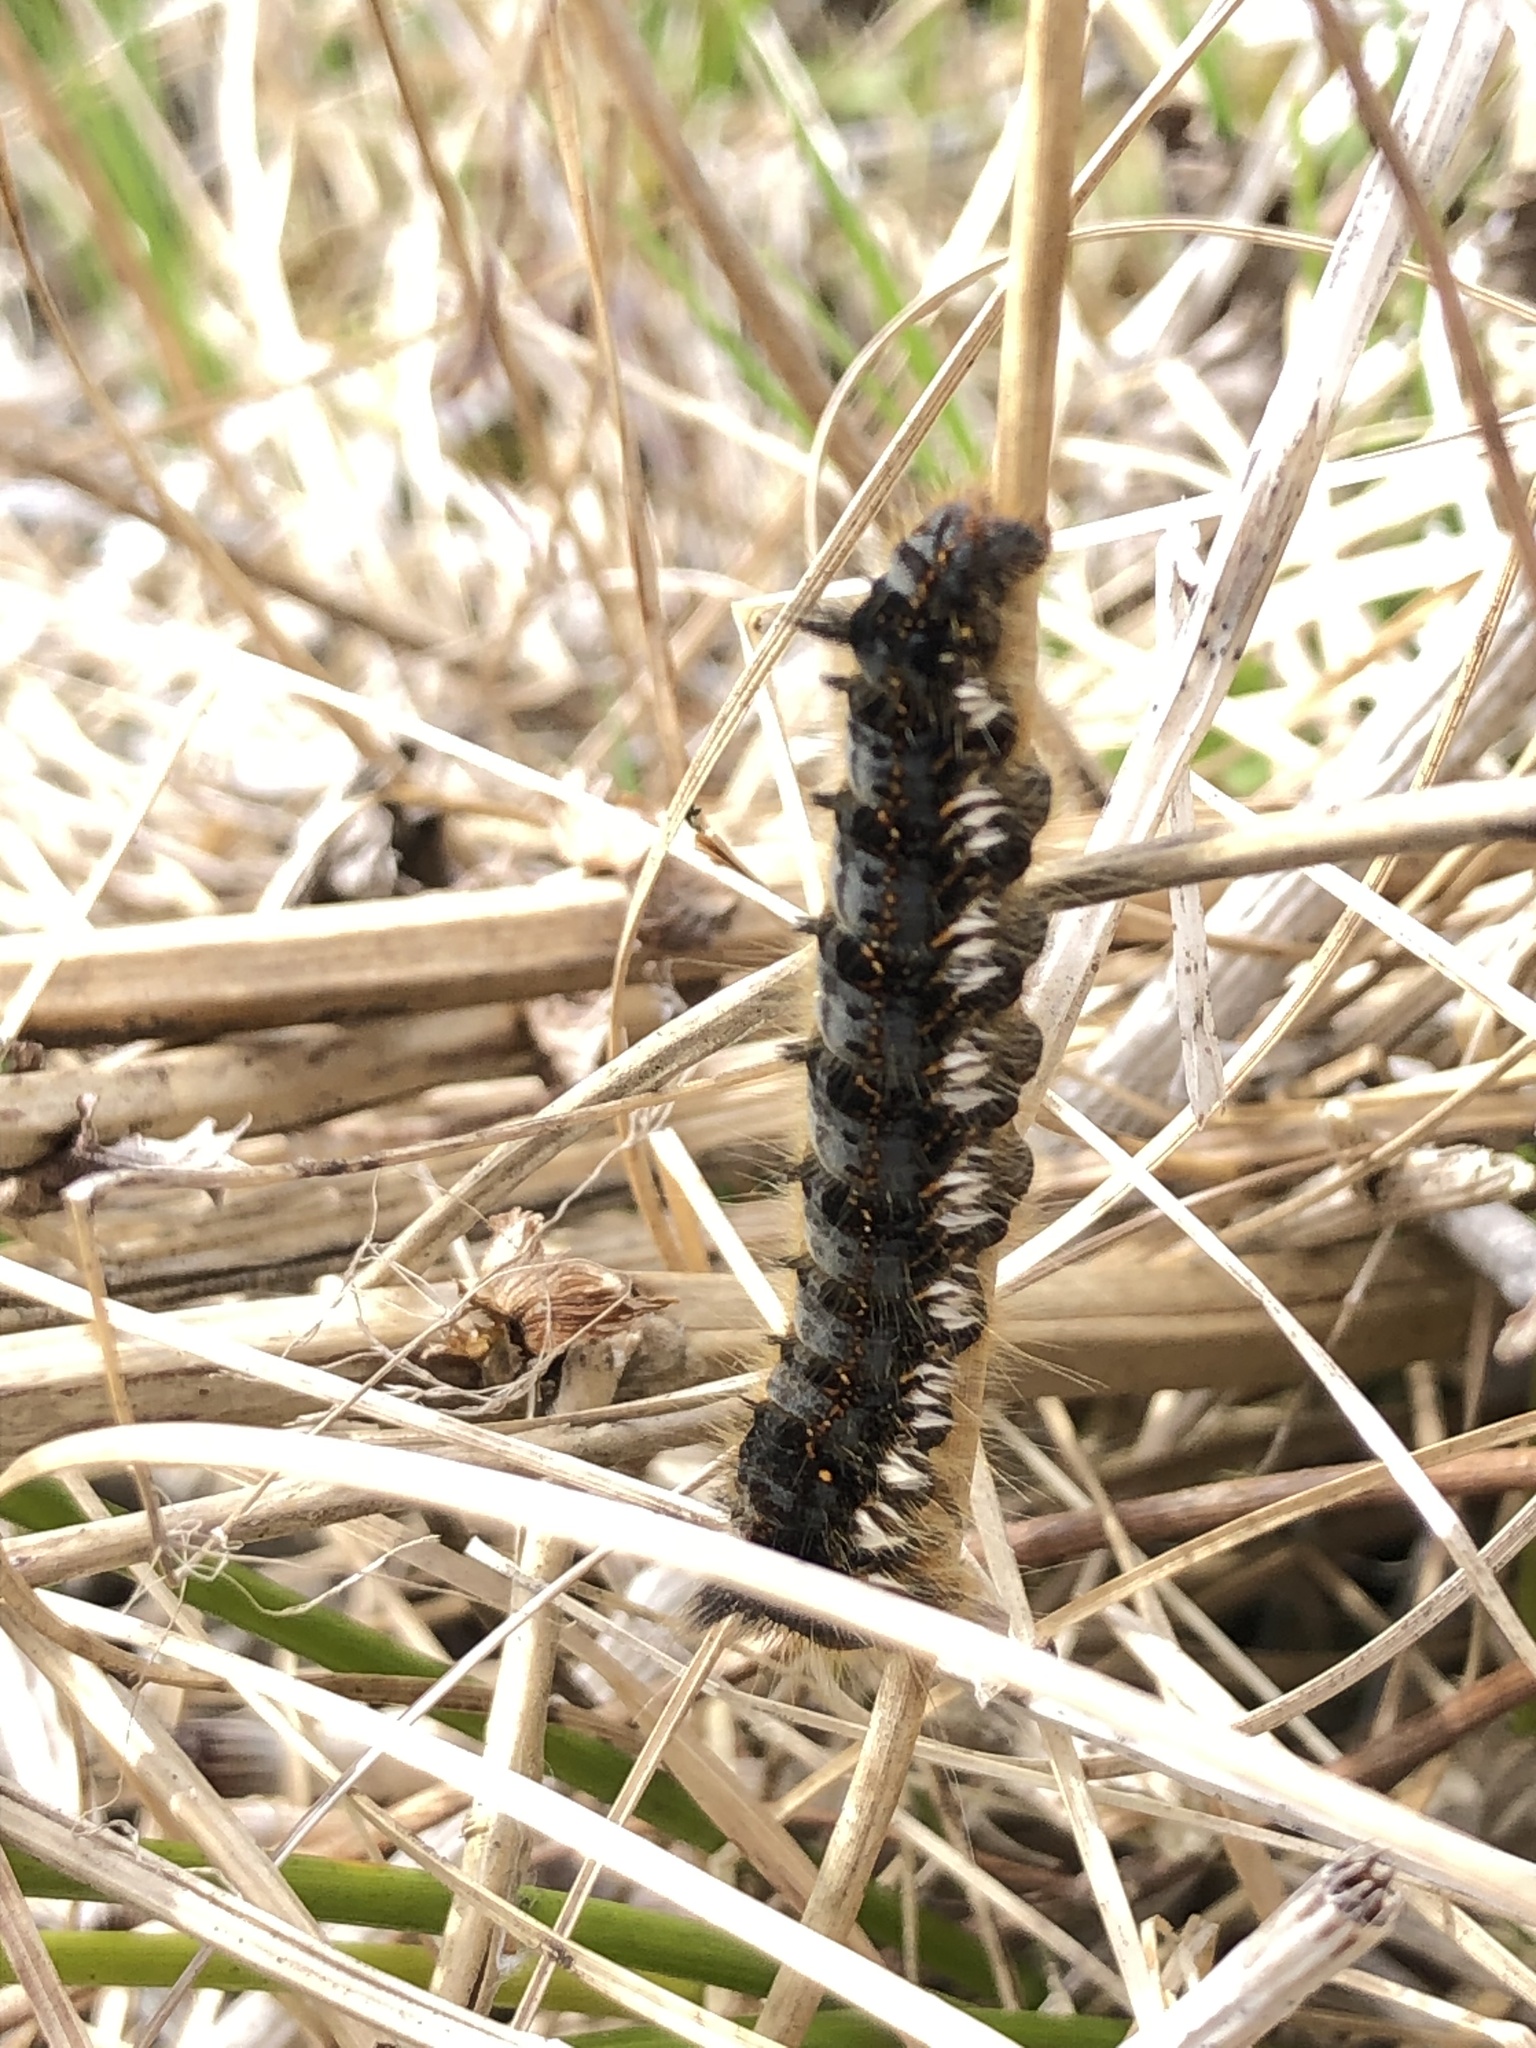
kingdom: Animalia
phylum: Arthropoda
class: Insecta
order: Lepidoptera
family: Lasiocampidae
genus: Euthrix
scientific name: Euthrix potatoria
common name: Drinker
